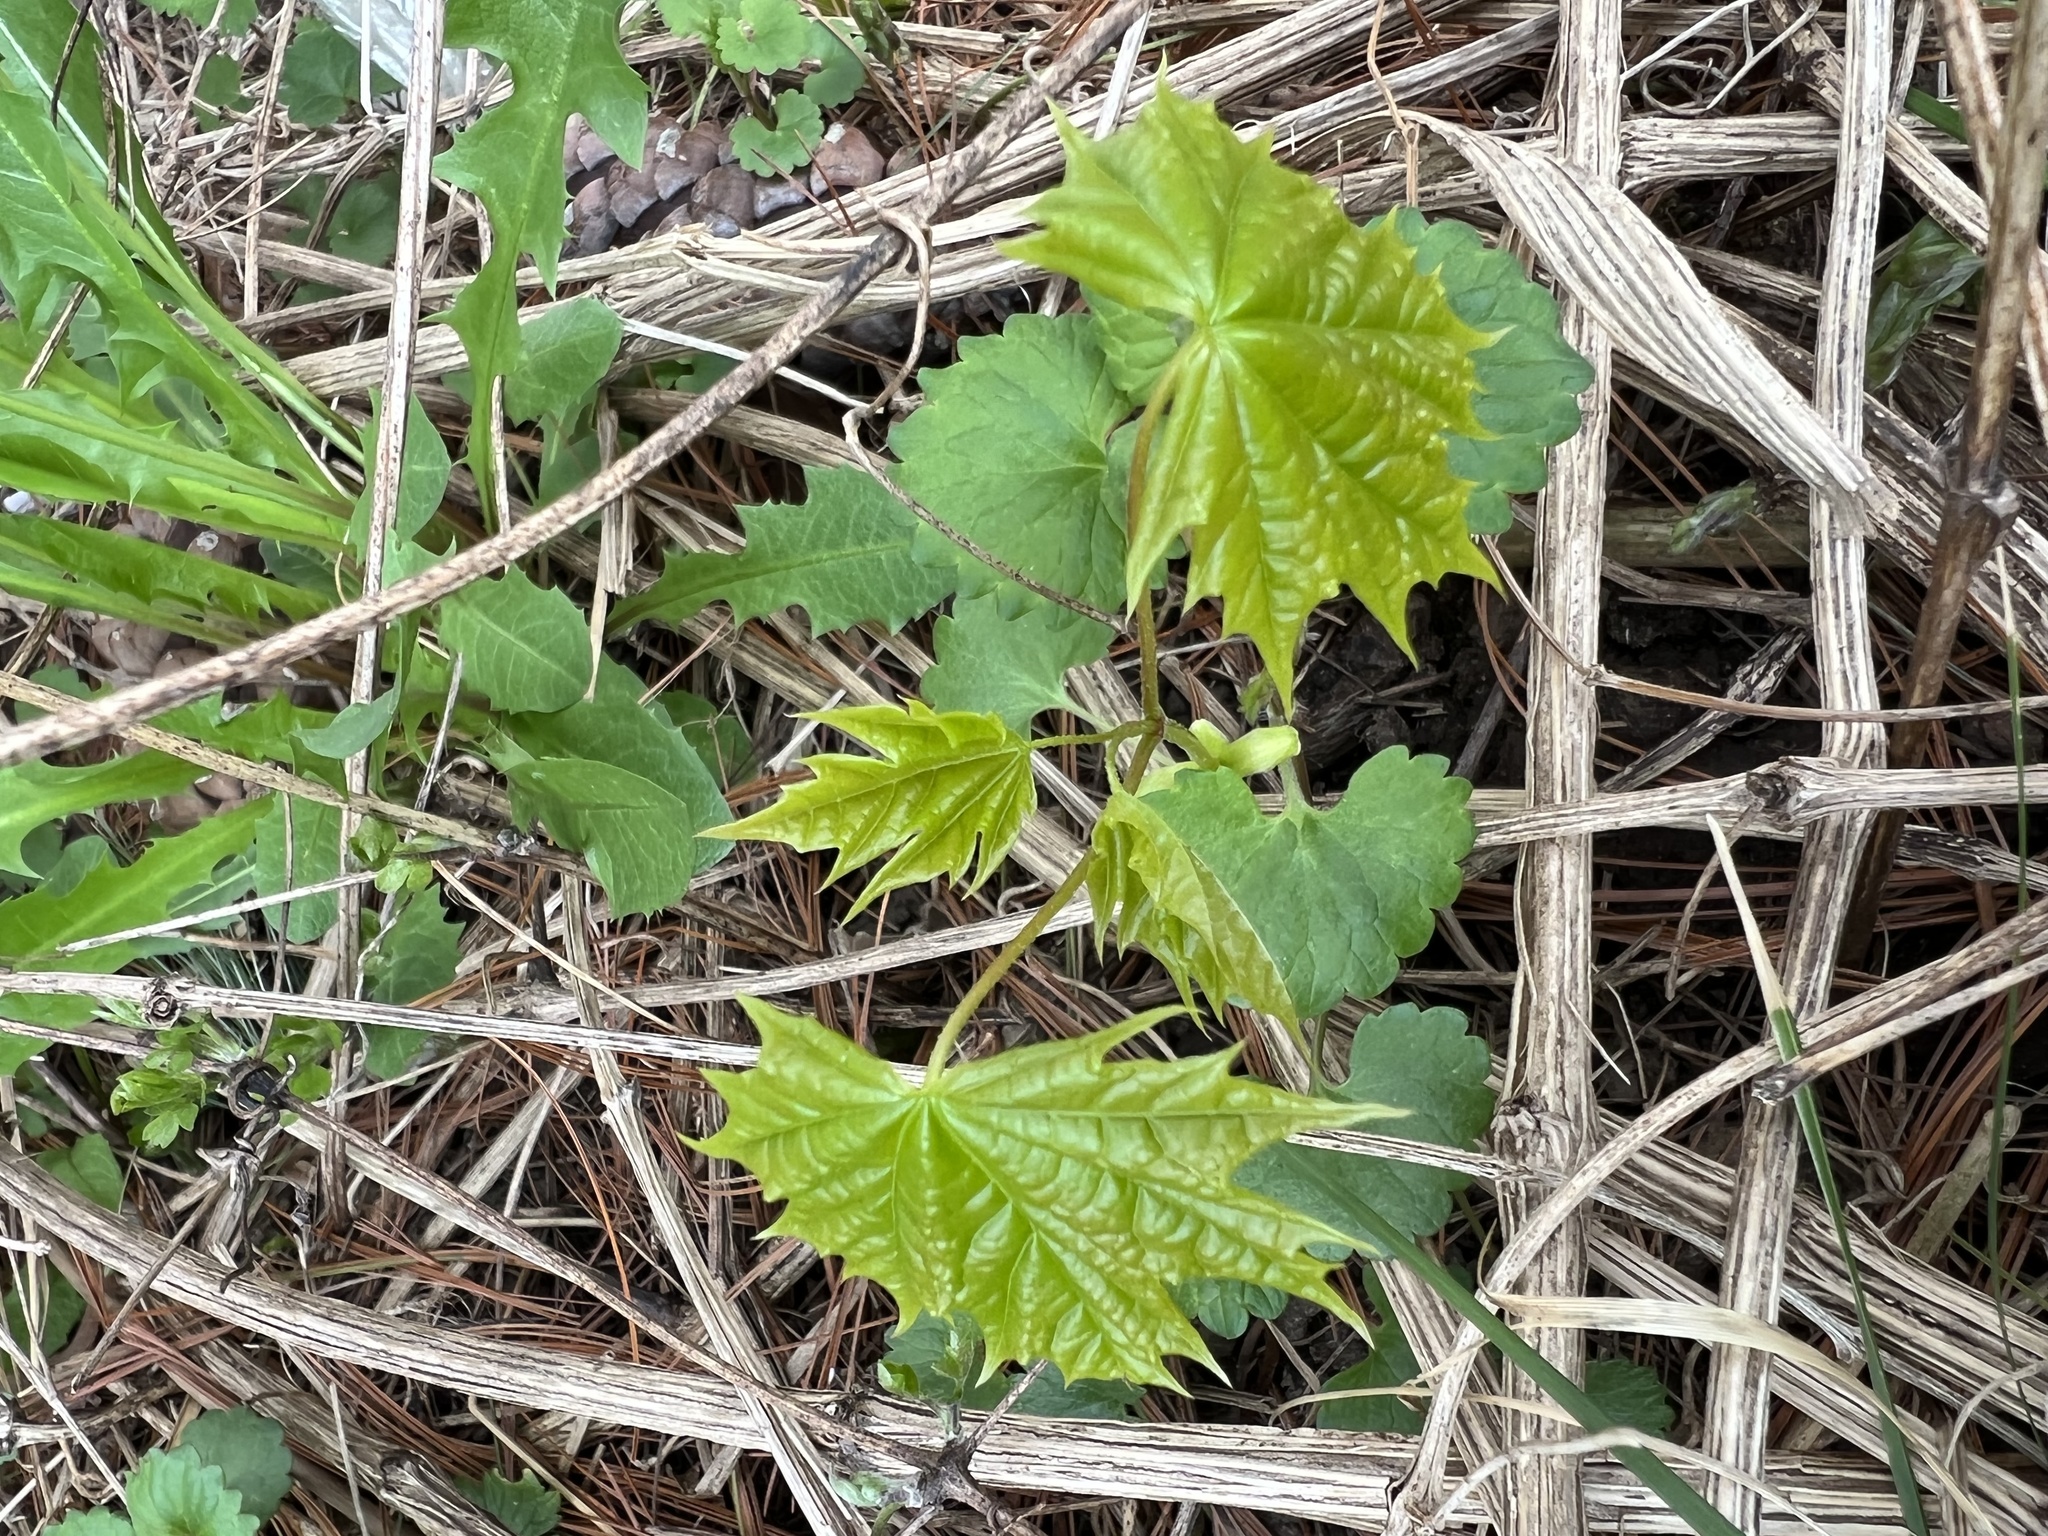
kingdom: Plantae
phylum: Tracheophyta
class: Magnoliopsida
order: Sapindales
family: Sapindaceae
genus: Acer
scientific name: Acer platanoides
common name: Norway maple
